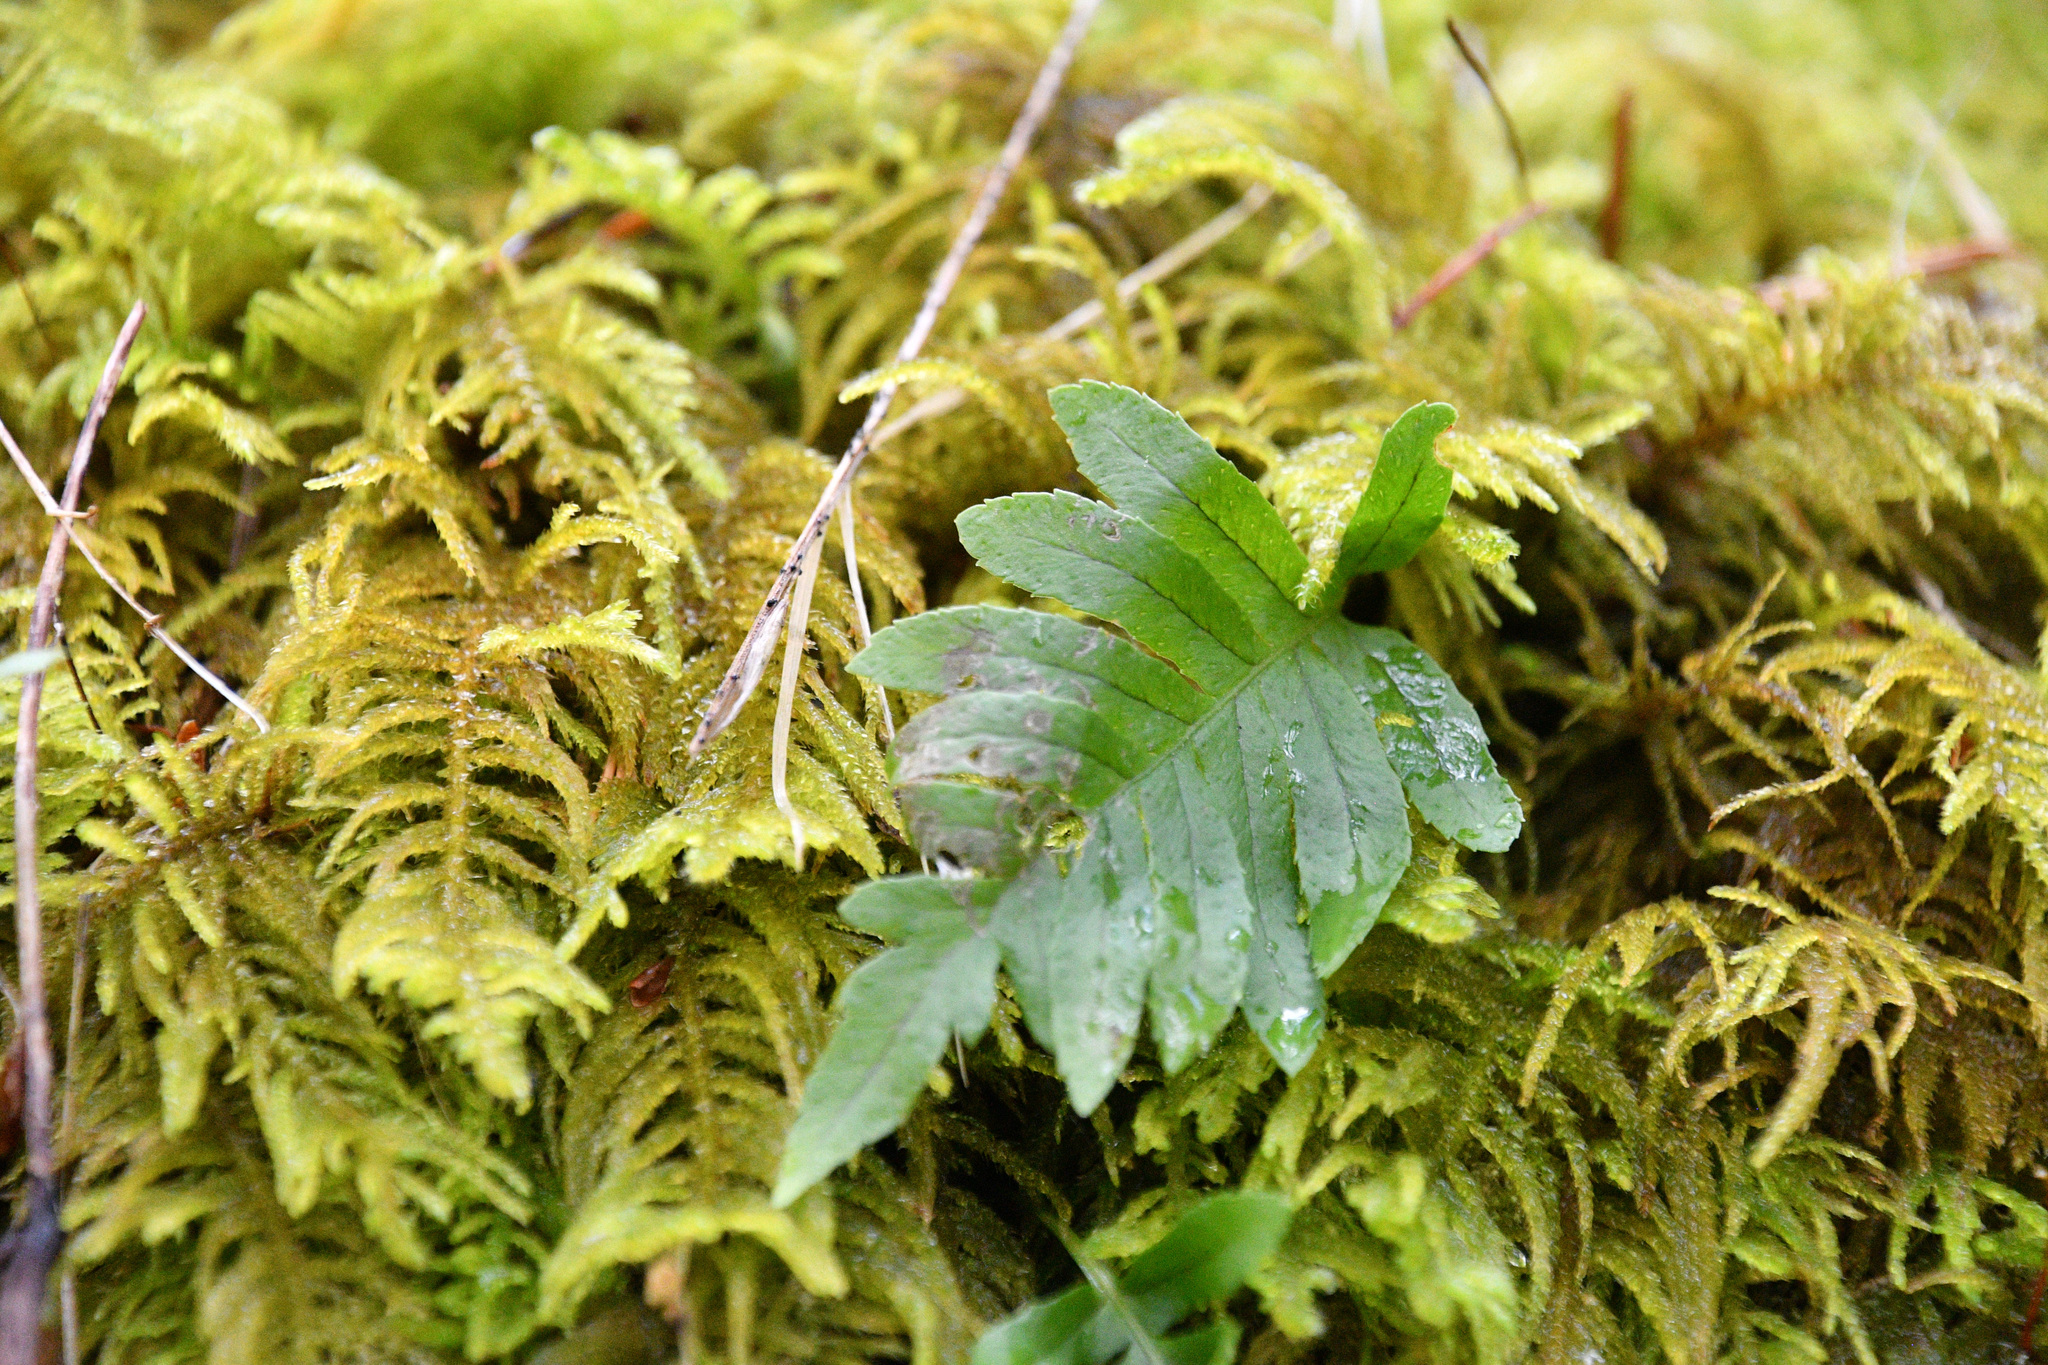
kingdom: Plantae
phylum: Tracheophyta
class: Polypodiopsida
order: Polypodiales
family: Polypodiaceae
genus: Polypodium
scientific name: Polypodium glycyrrhiza
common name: Licorice fern
